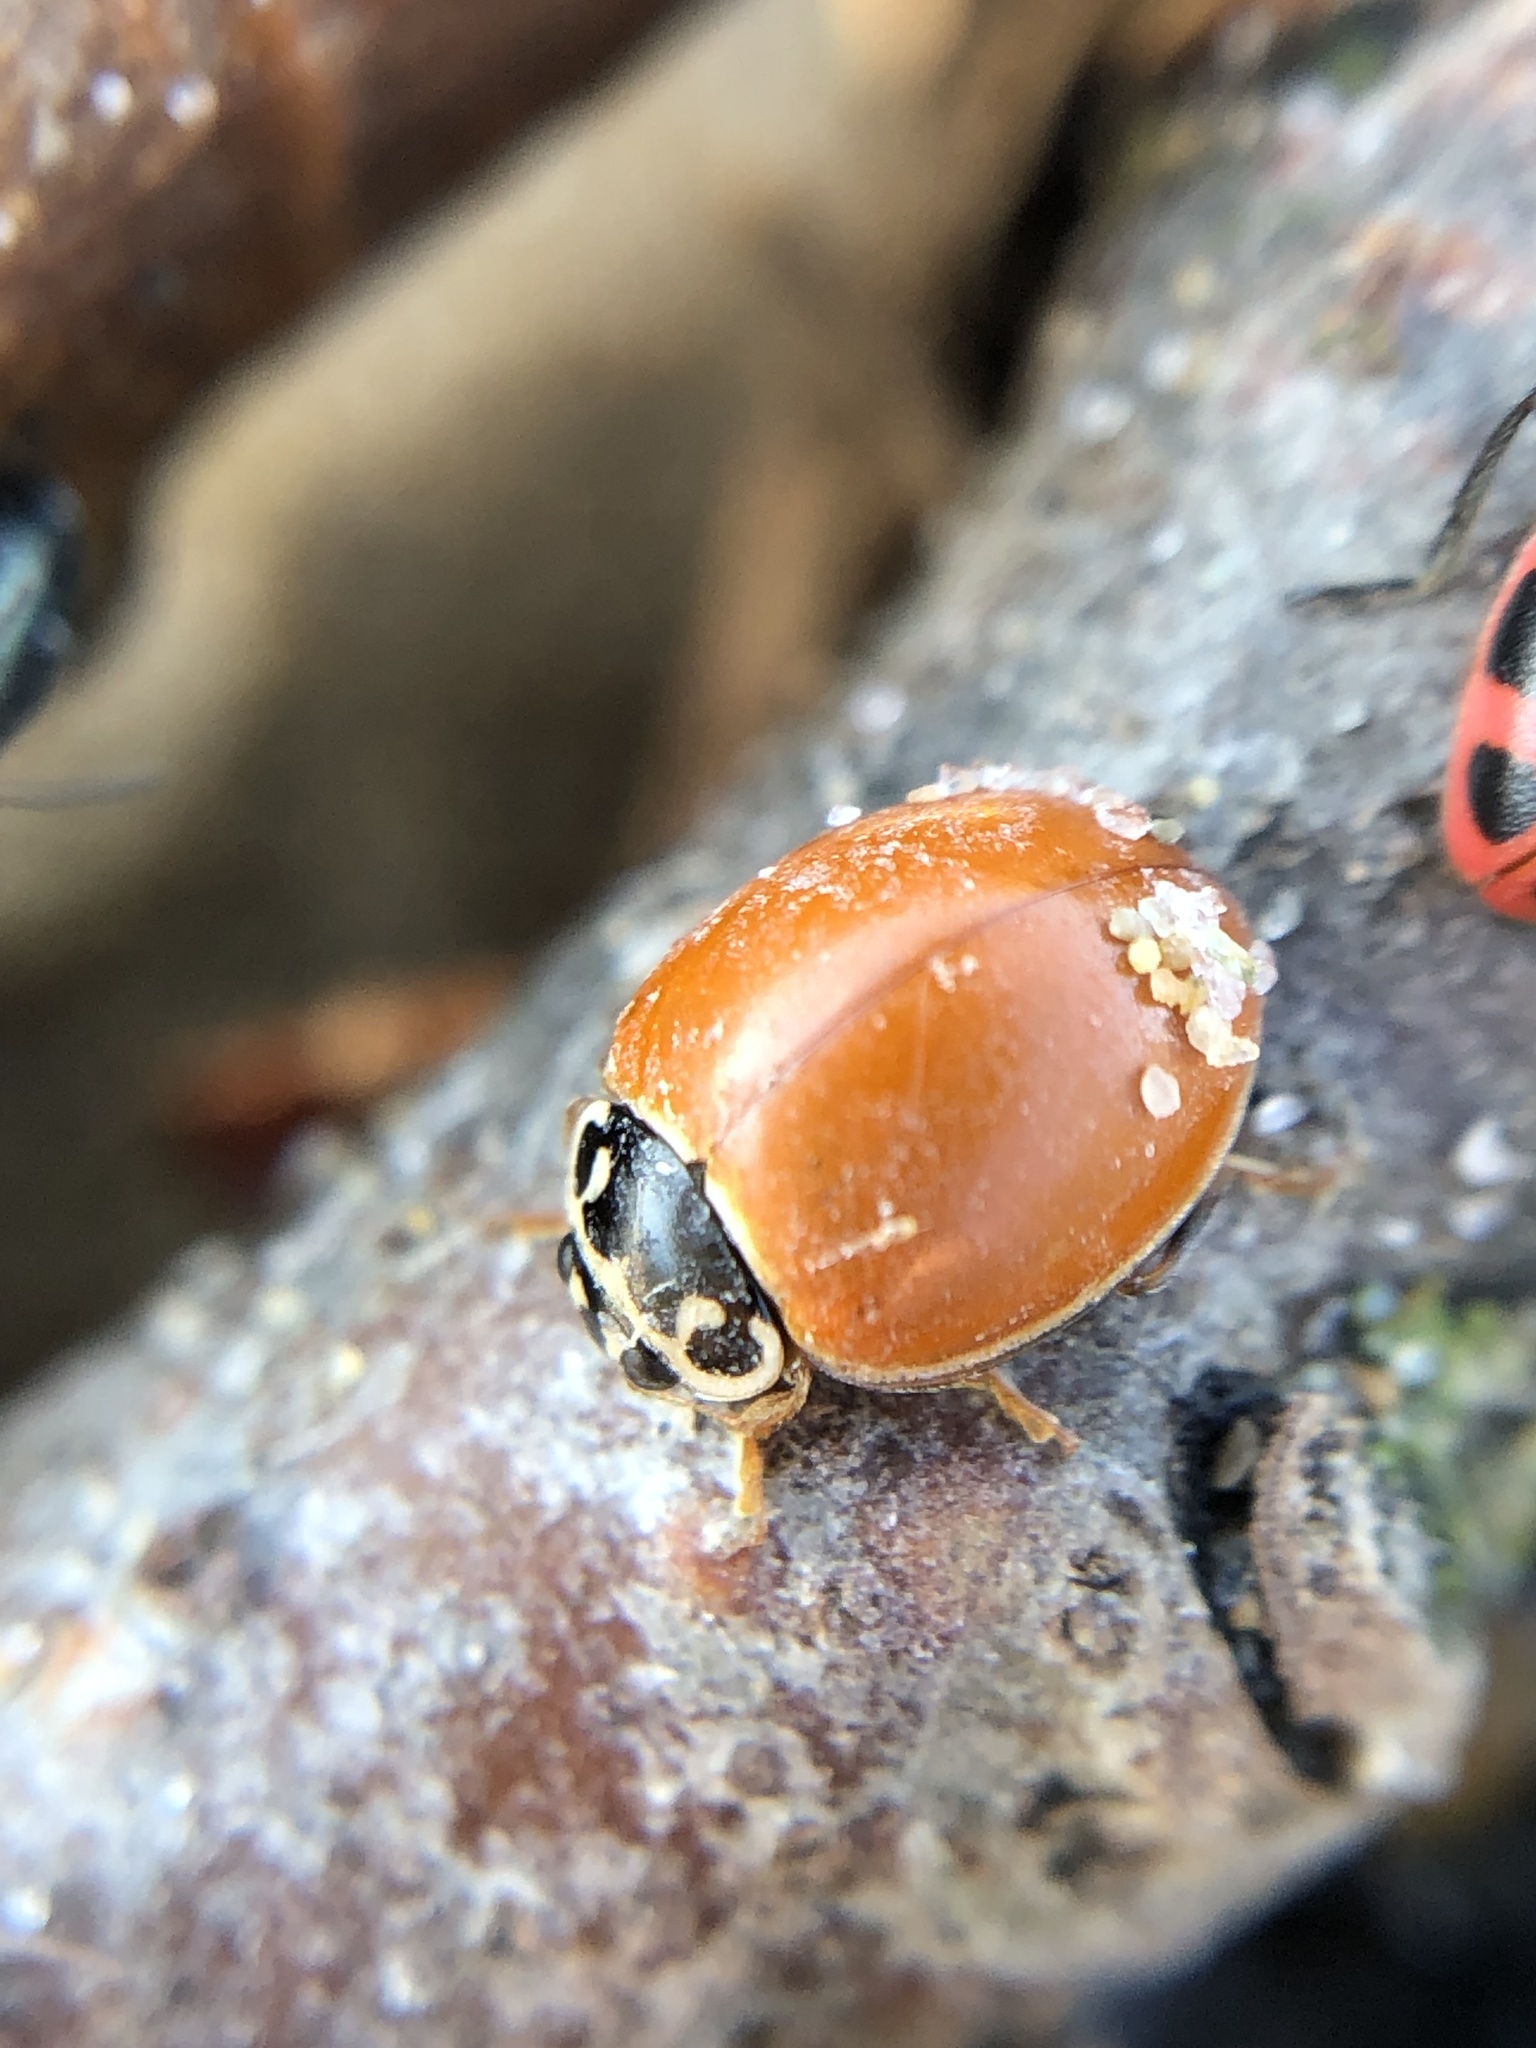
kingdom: Animalia
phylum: Arthropoda
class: Insecta
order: Coleoptera
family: Coccinellidae
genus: Cycloneda
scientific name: Cycloneda munda
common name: Polished lady beetle
